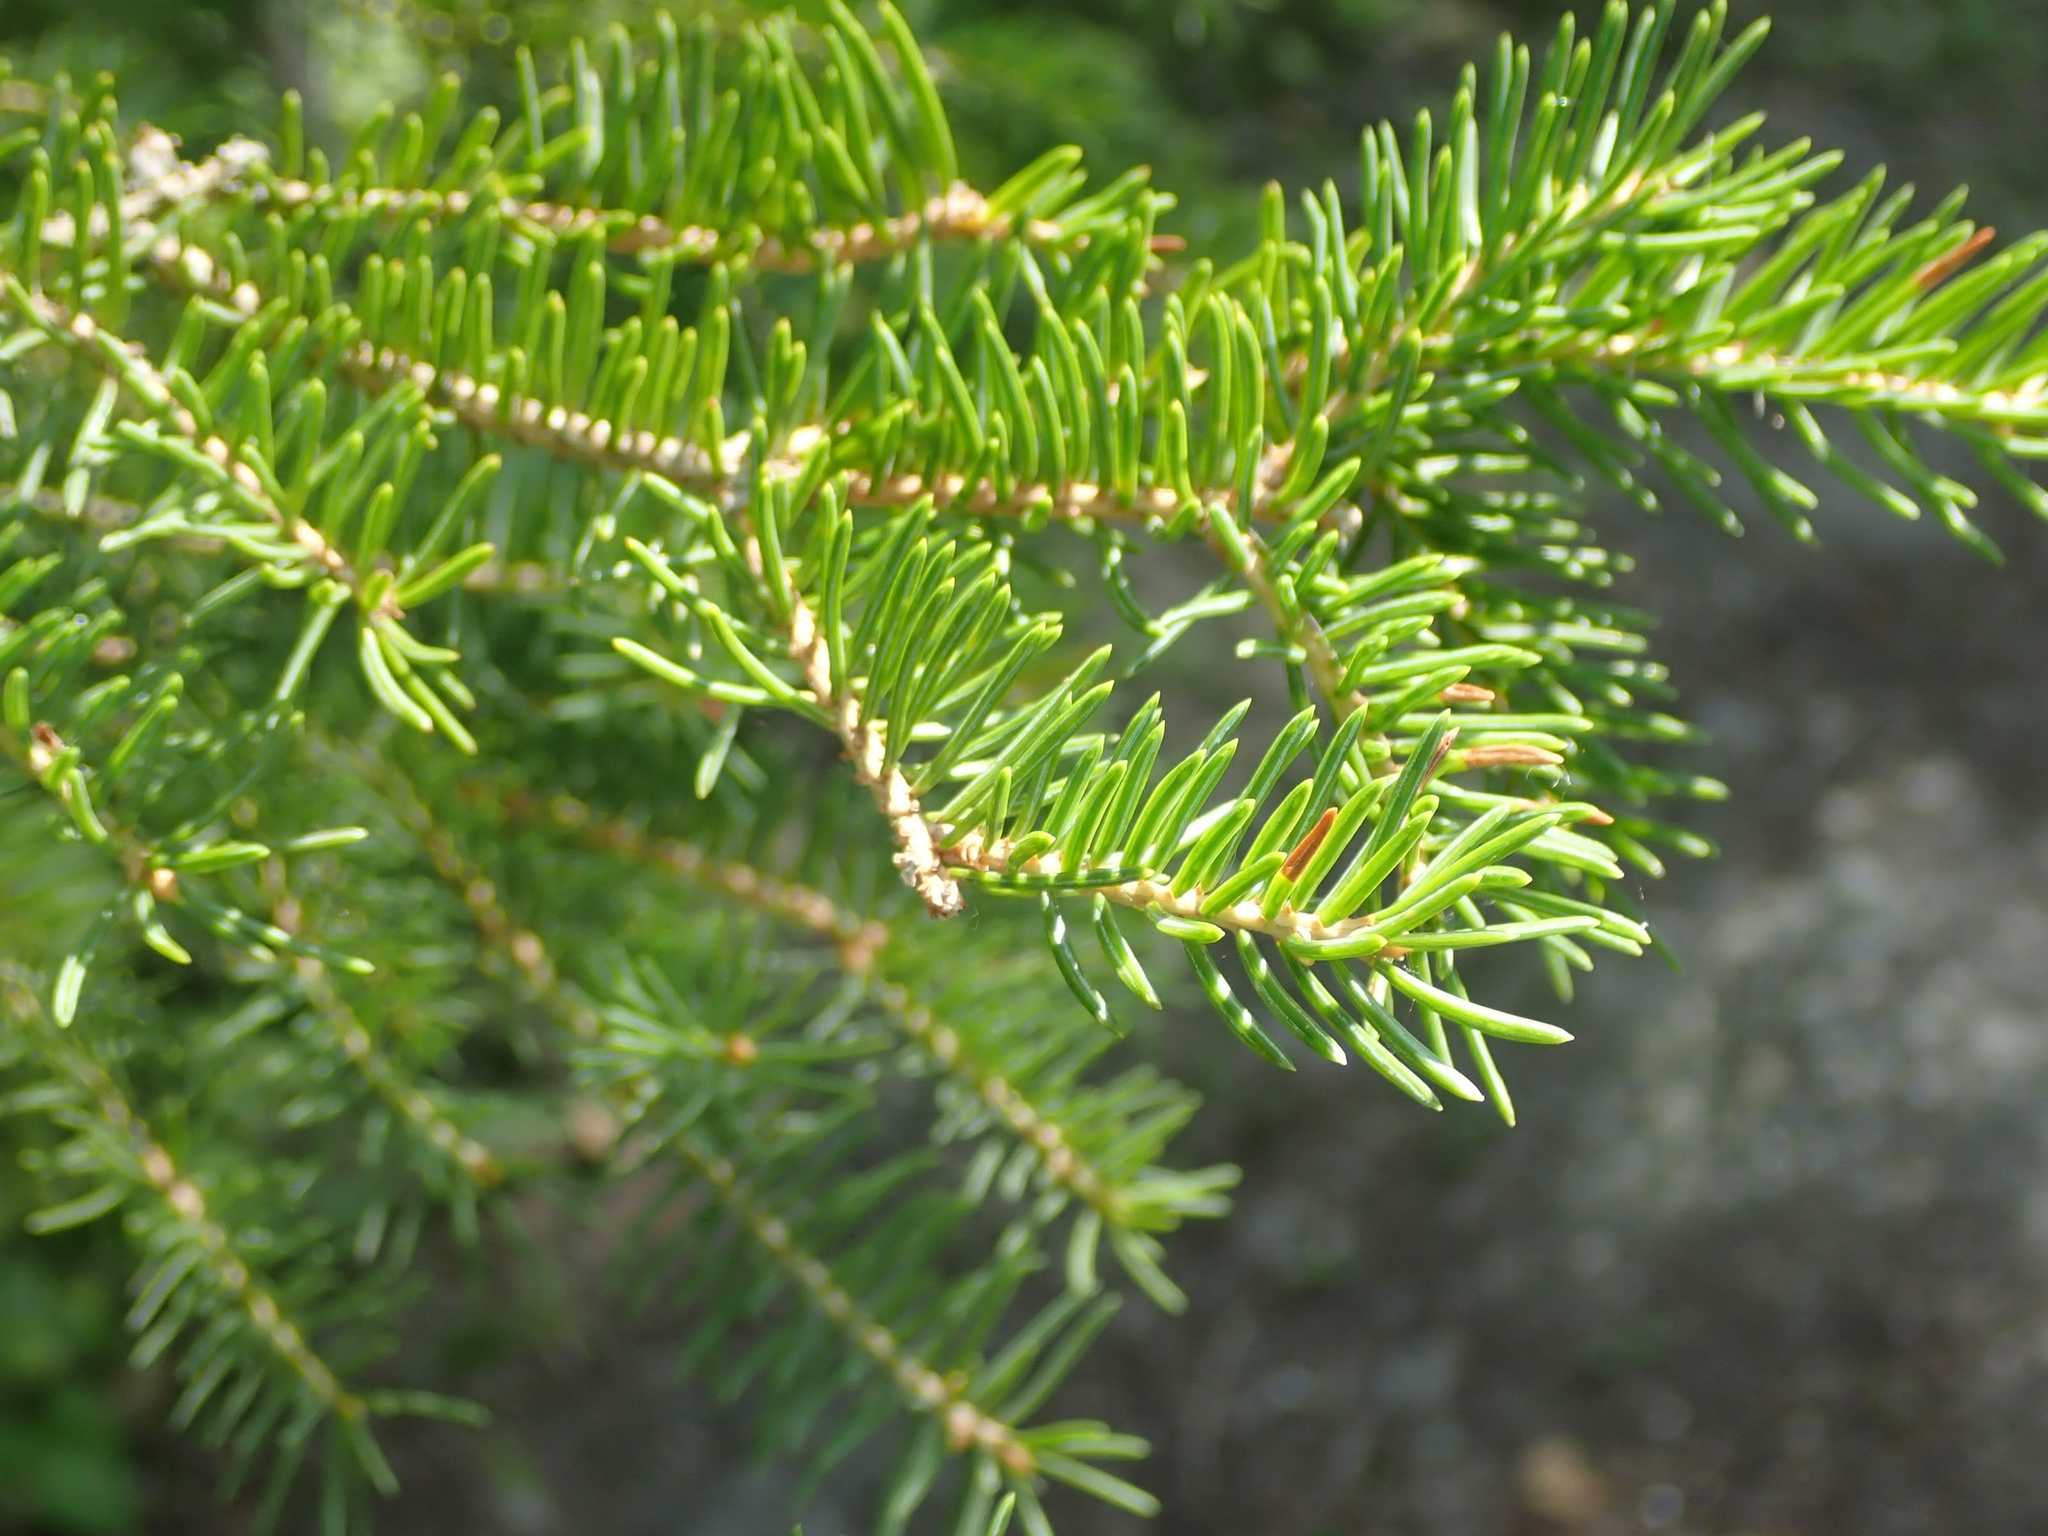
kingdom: Plantae
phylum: Tracheophyta
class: Pinopsida
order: Pinales
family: Pinaceae
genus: Picea
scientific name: Picea glauca
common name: White spruce
